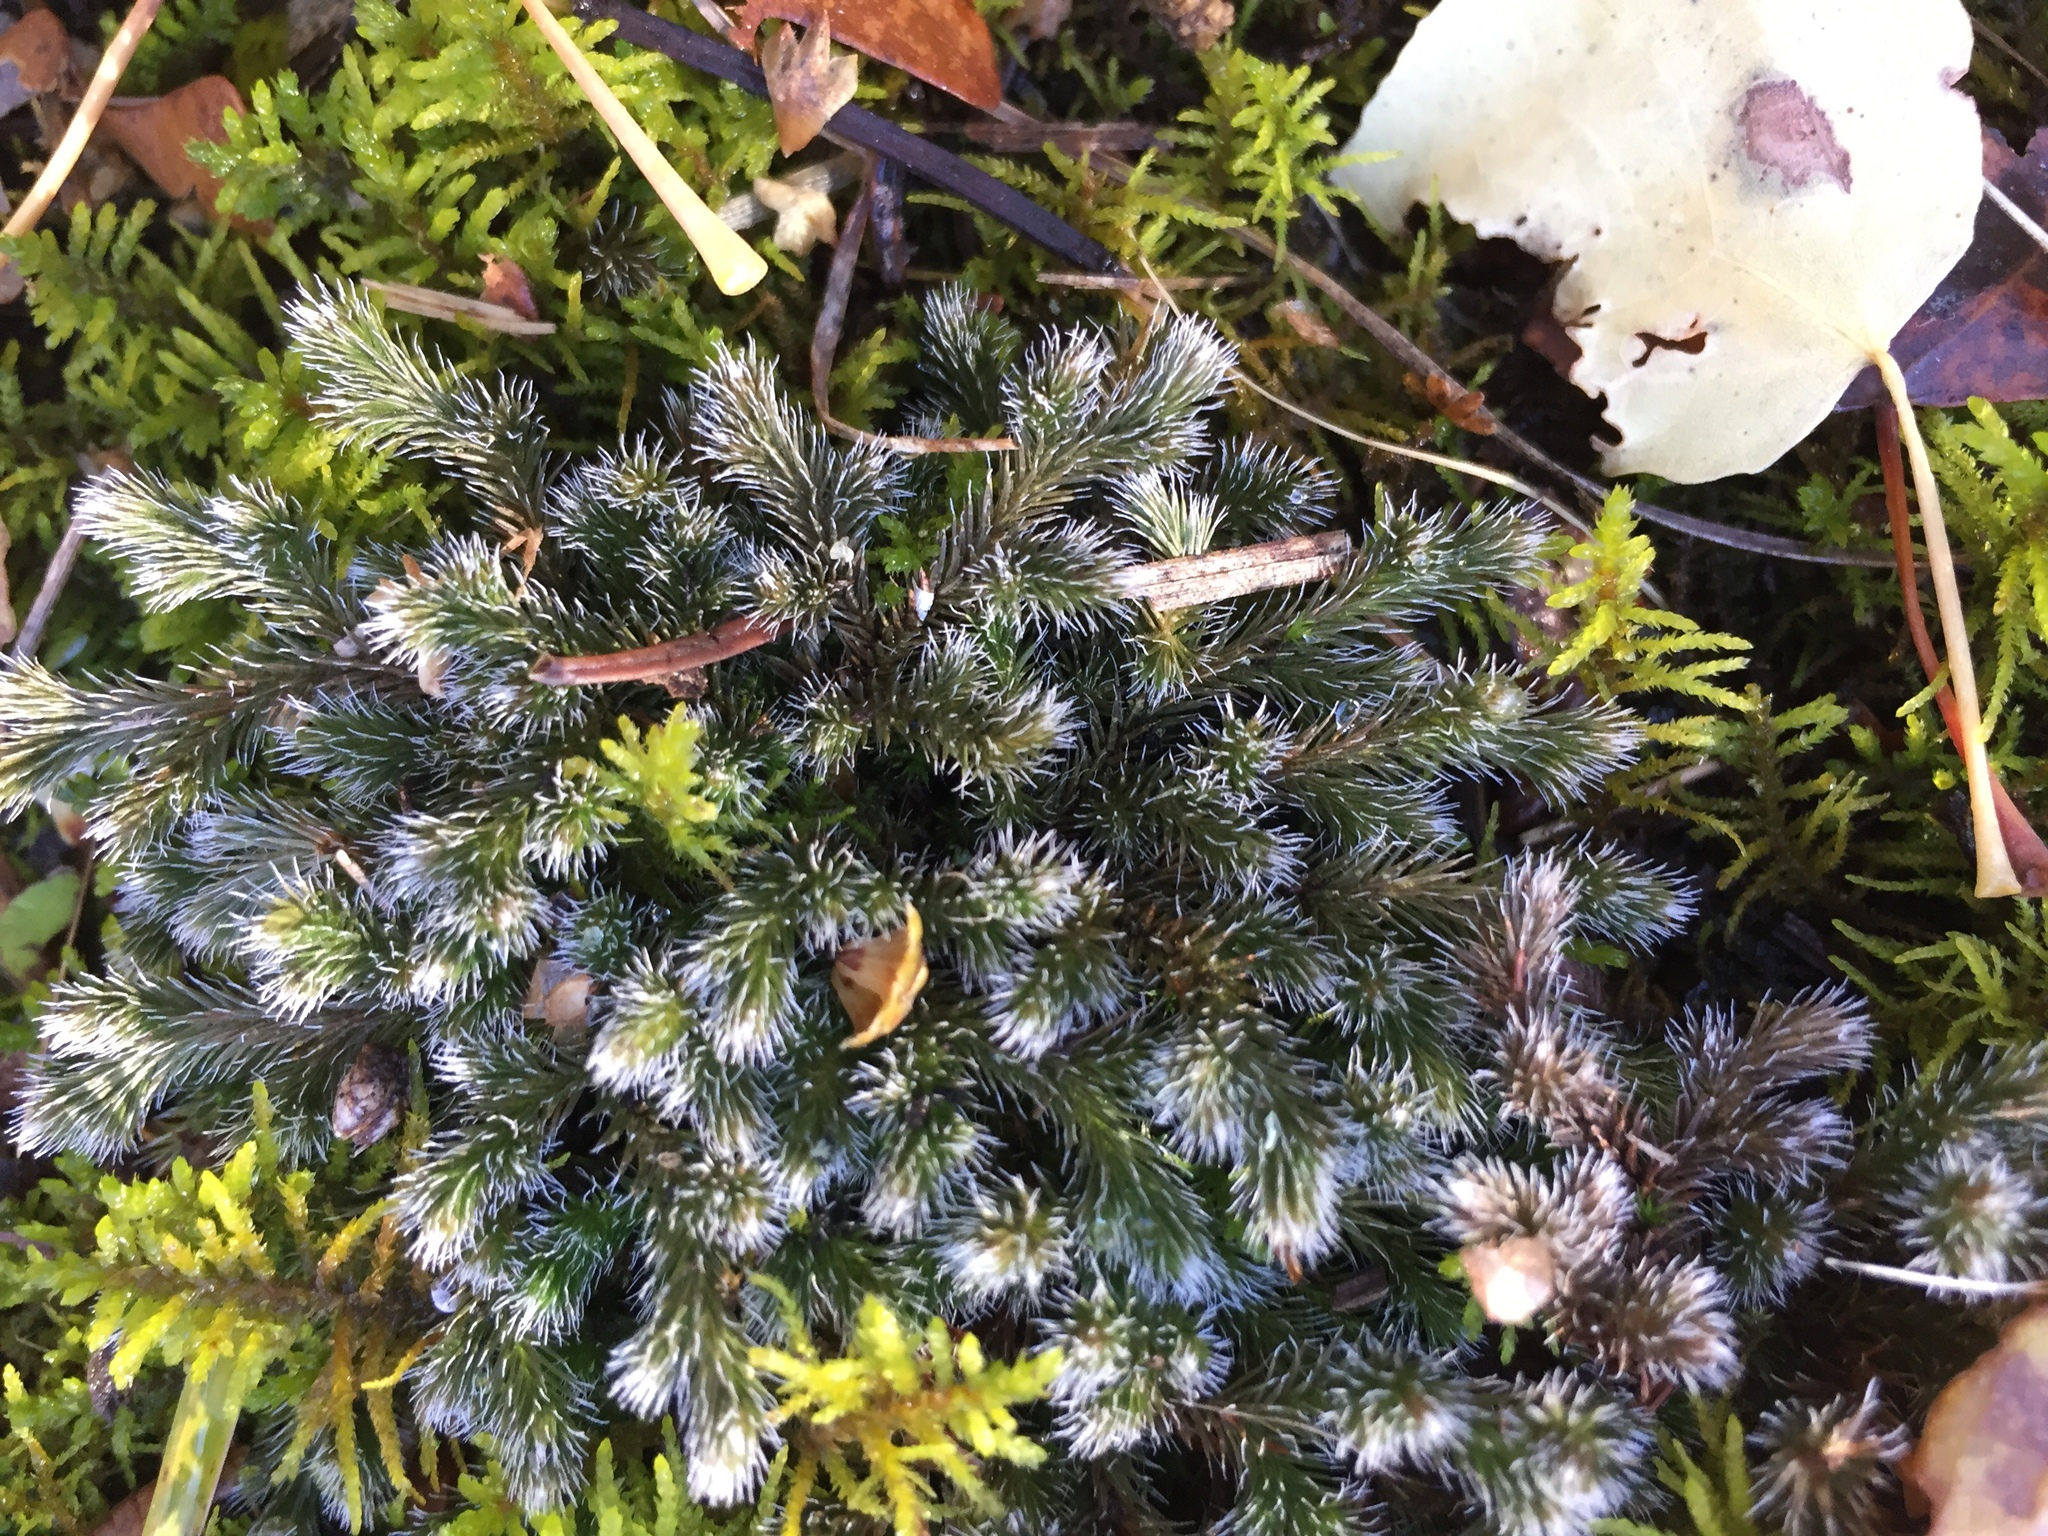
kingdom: Plantae
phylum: Tracheophyta
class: Lycopodiopsida
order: Selaginellales
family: Selaginellaceae
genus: Selaginella
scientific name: Selaginella rupestris
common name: Dwarf spikemoss
